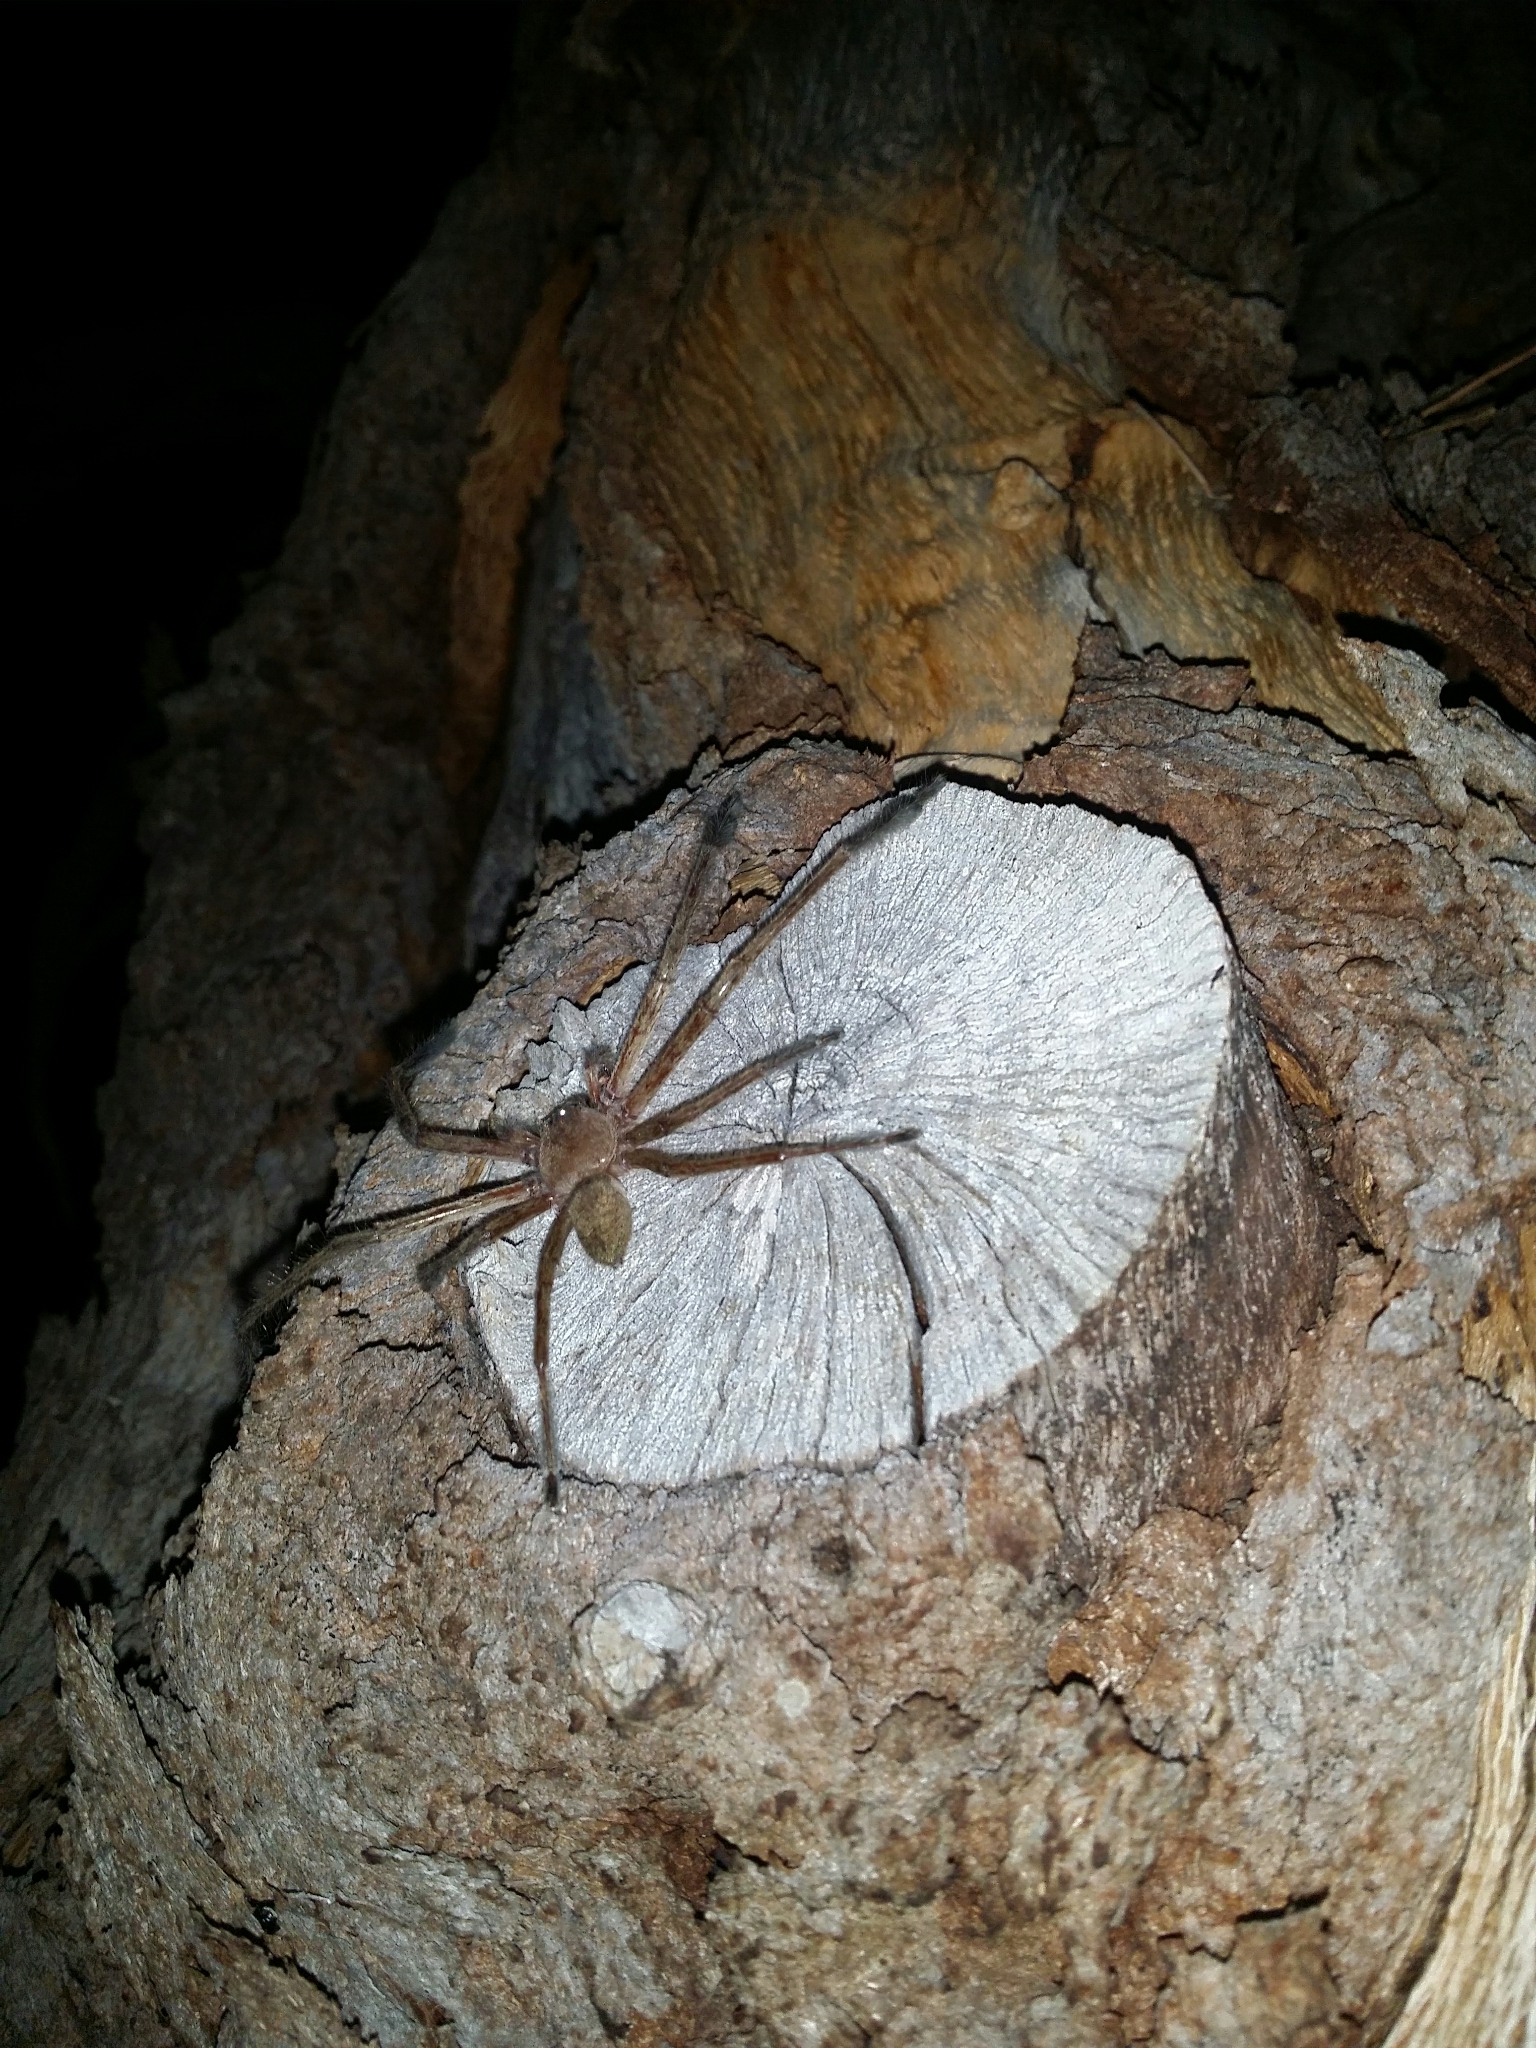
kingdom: Animalia
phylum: Arthropoda
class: Arachnida
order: Araneae
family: Sparassidae
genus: Delena
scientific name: Delena cancerides
